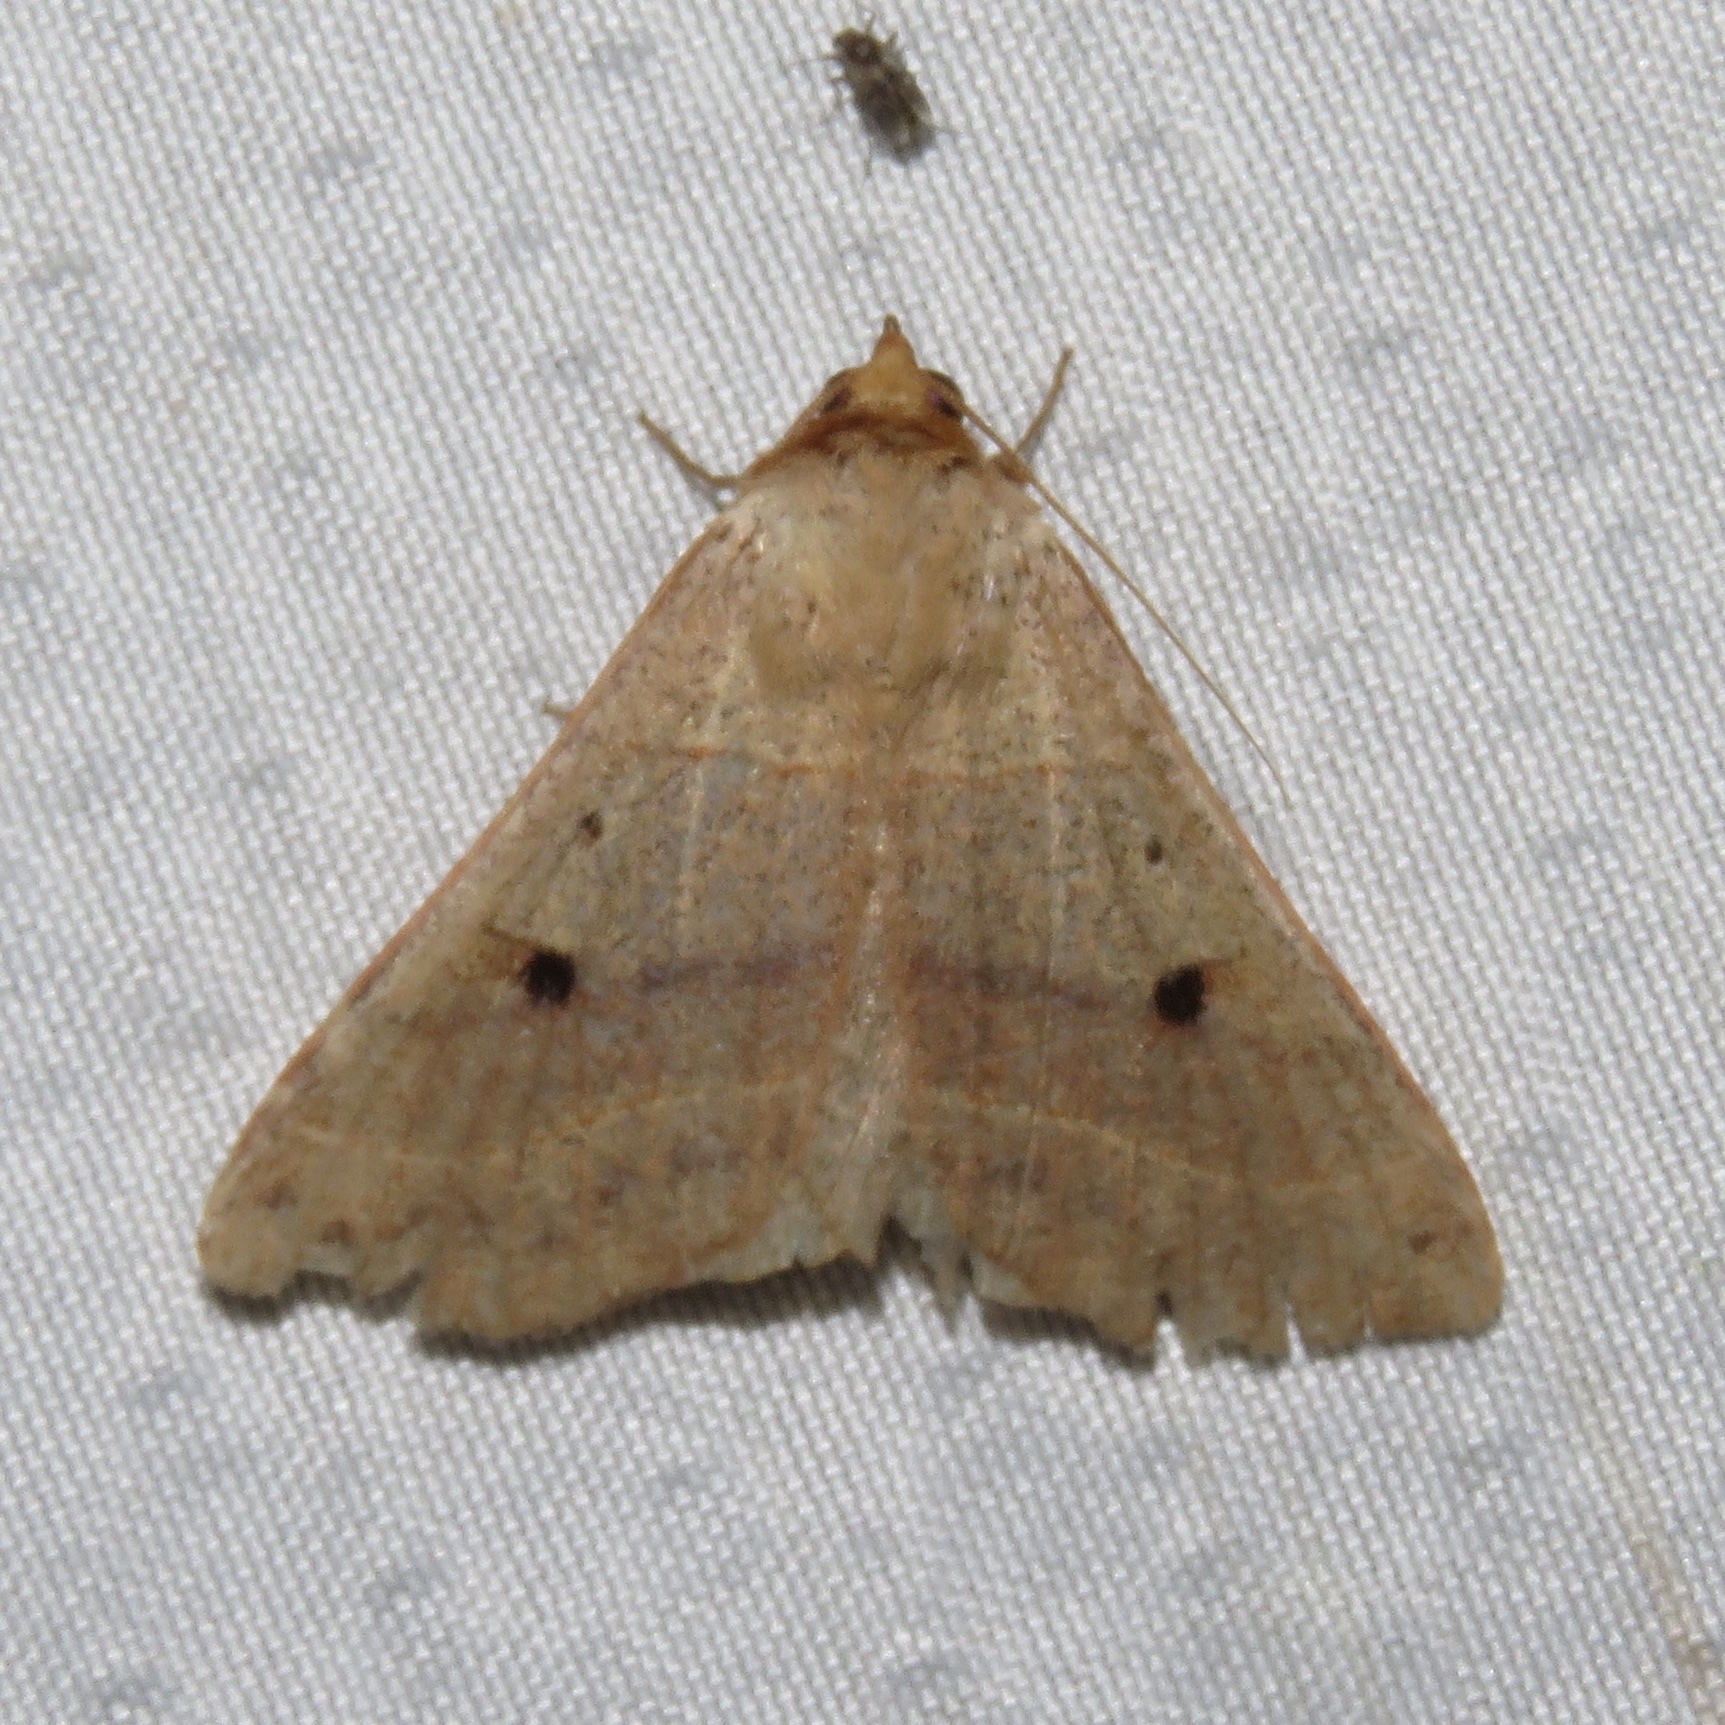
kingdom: Animalia
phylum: Arthropoda
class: Insecta
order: Lepidoptera
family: Erebidae
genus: Panopoda
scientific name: Panopoda rufimargo
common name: Red-lined panopoda moth
